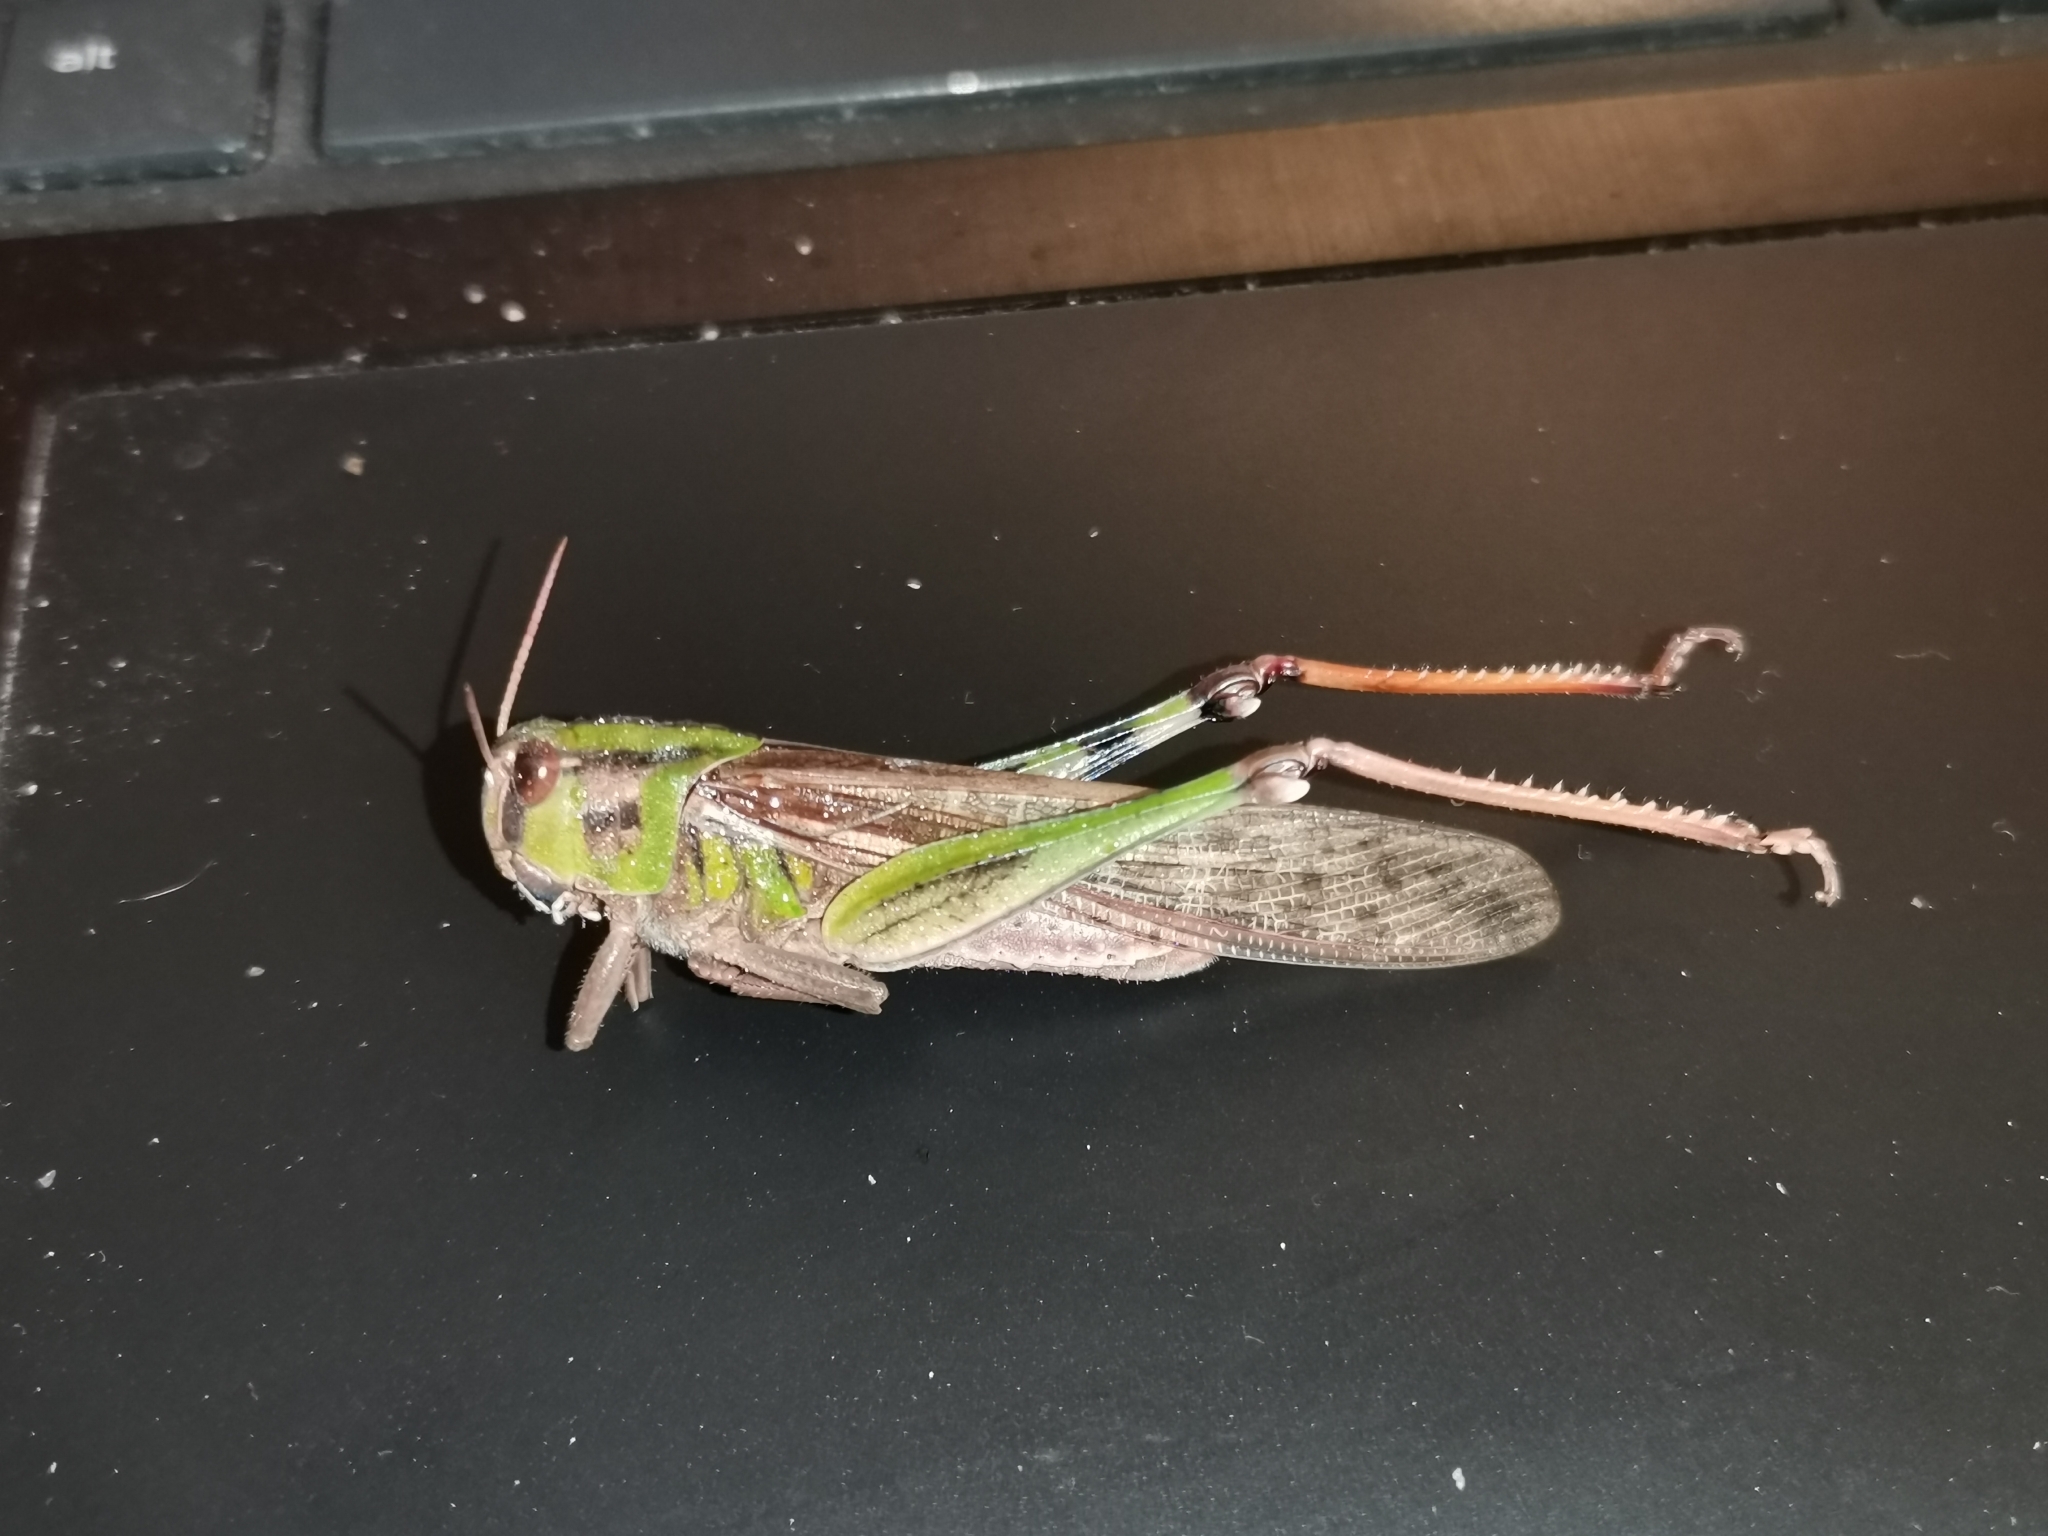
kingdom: Animalia
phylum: Arthropoda
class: Insecta
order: Orthoptera
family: Acrididae
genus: Locusta
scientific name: Locusta migratoria
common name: Migratory locust
